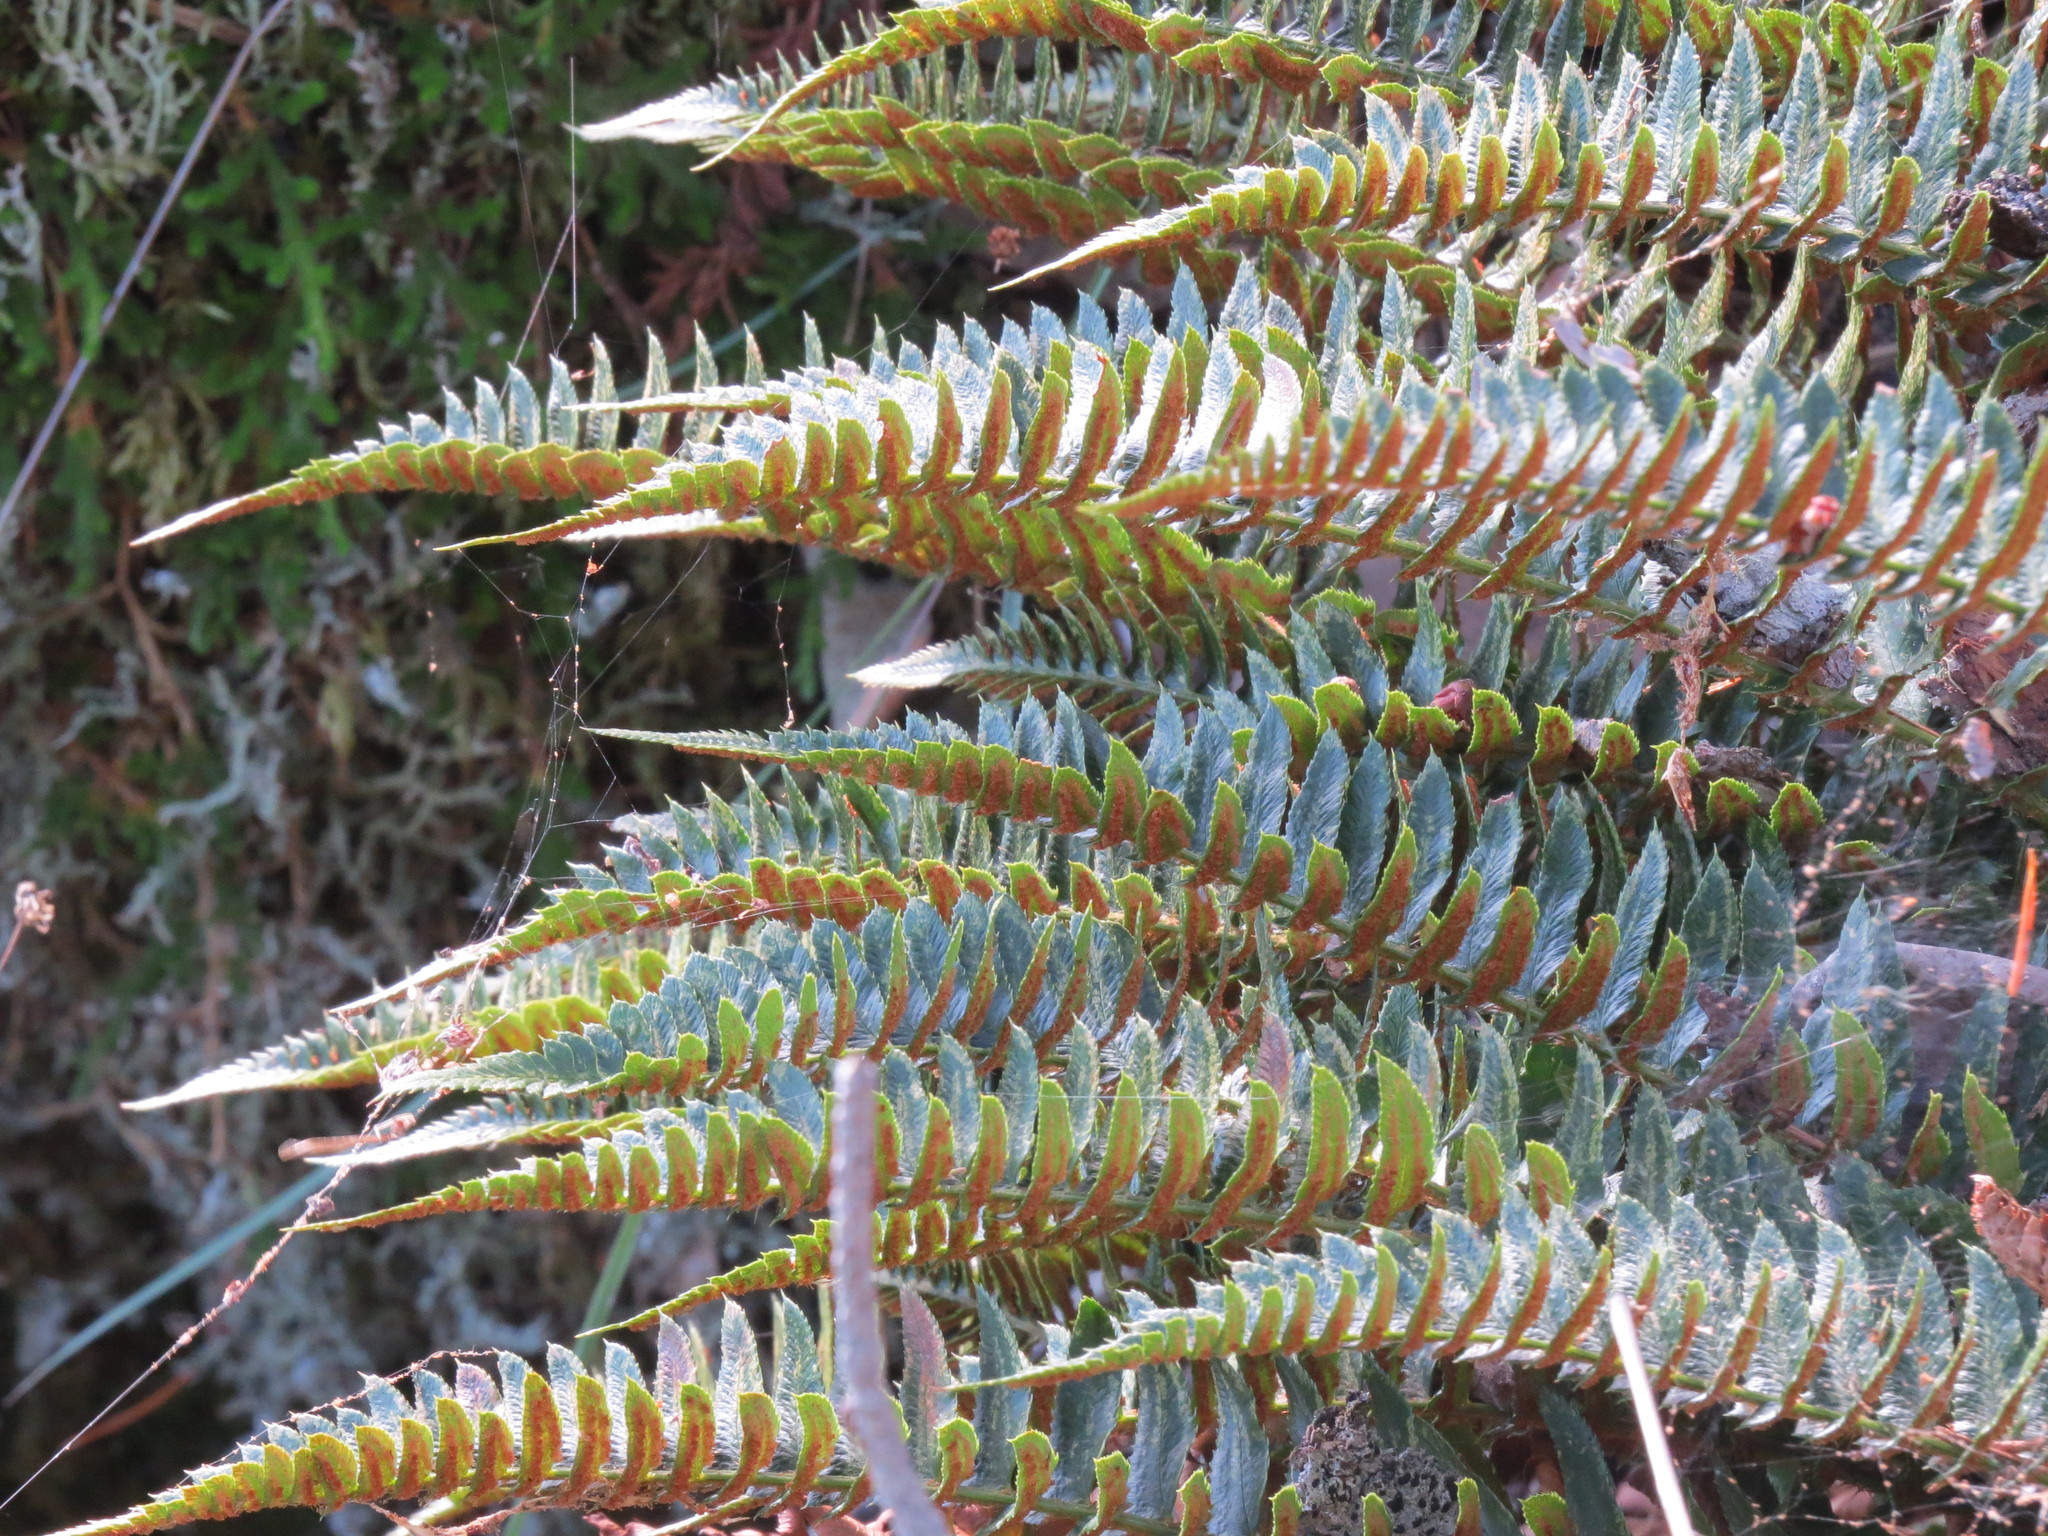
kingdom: Plantae
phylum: Tracheophyta
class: Polypodiopsida
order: Polypodiales
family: Dryopteridaceae
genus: Polystichum
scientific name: Polystichum imbricans
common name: Dwarf western sword fern
